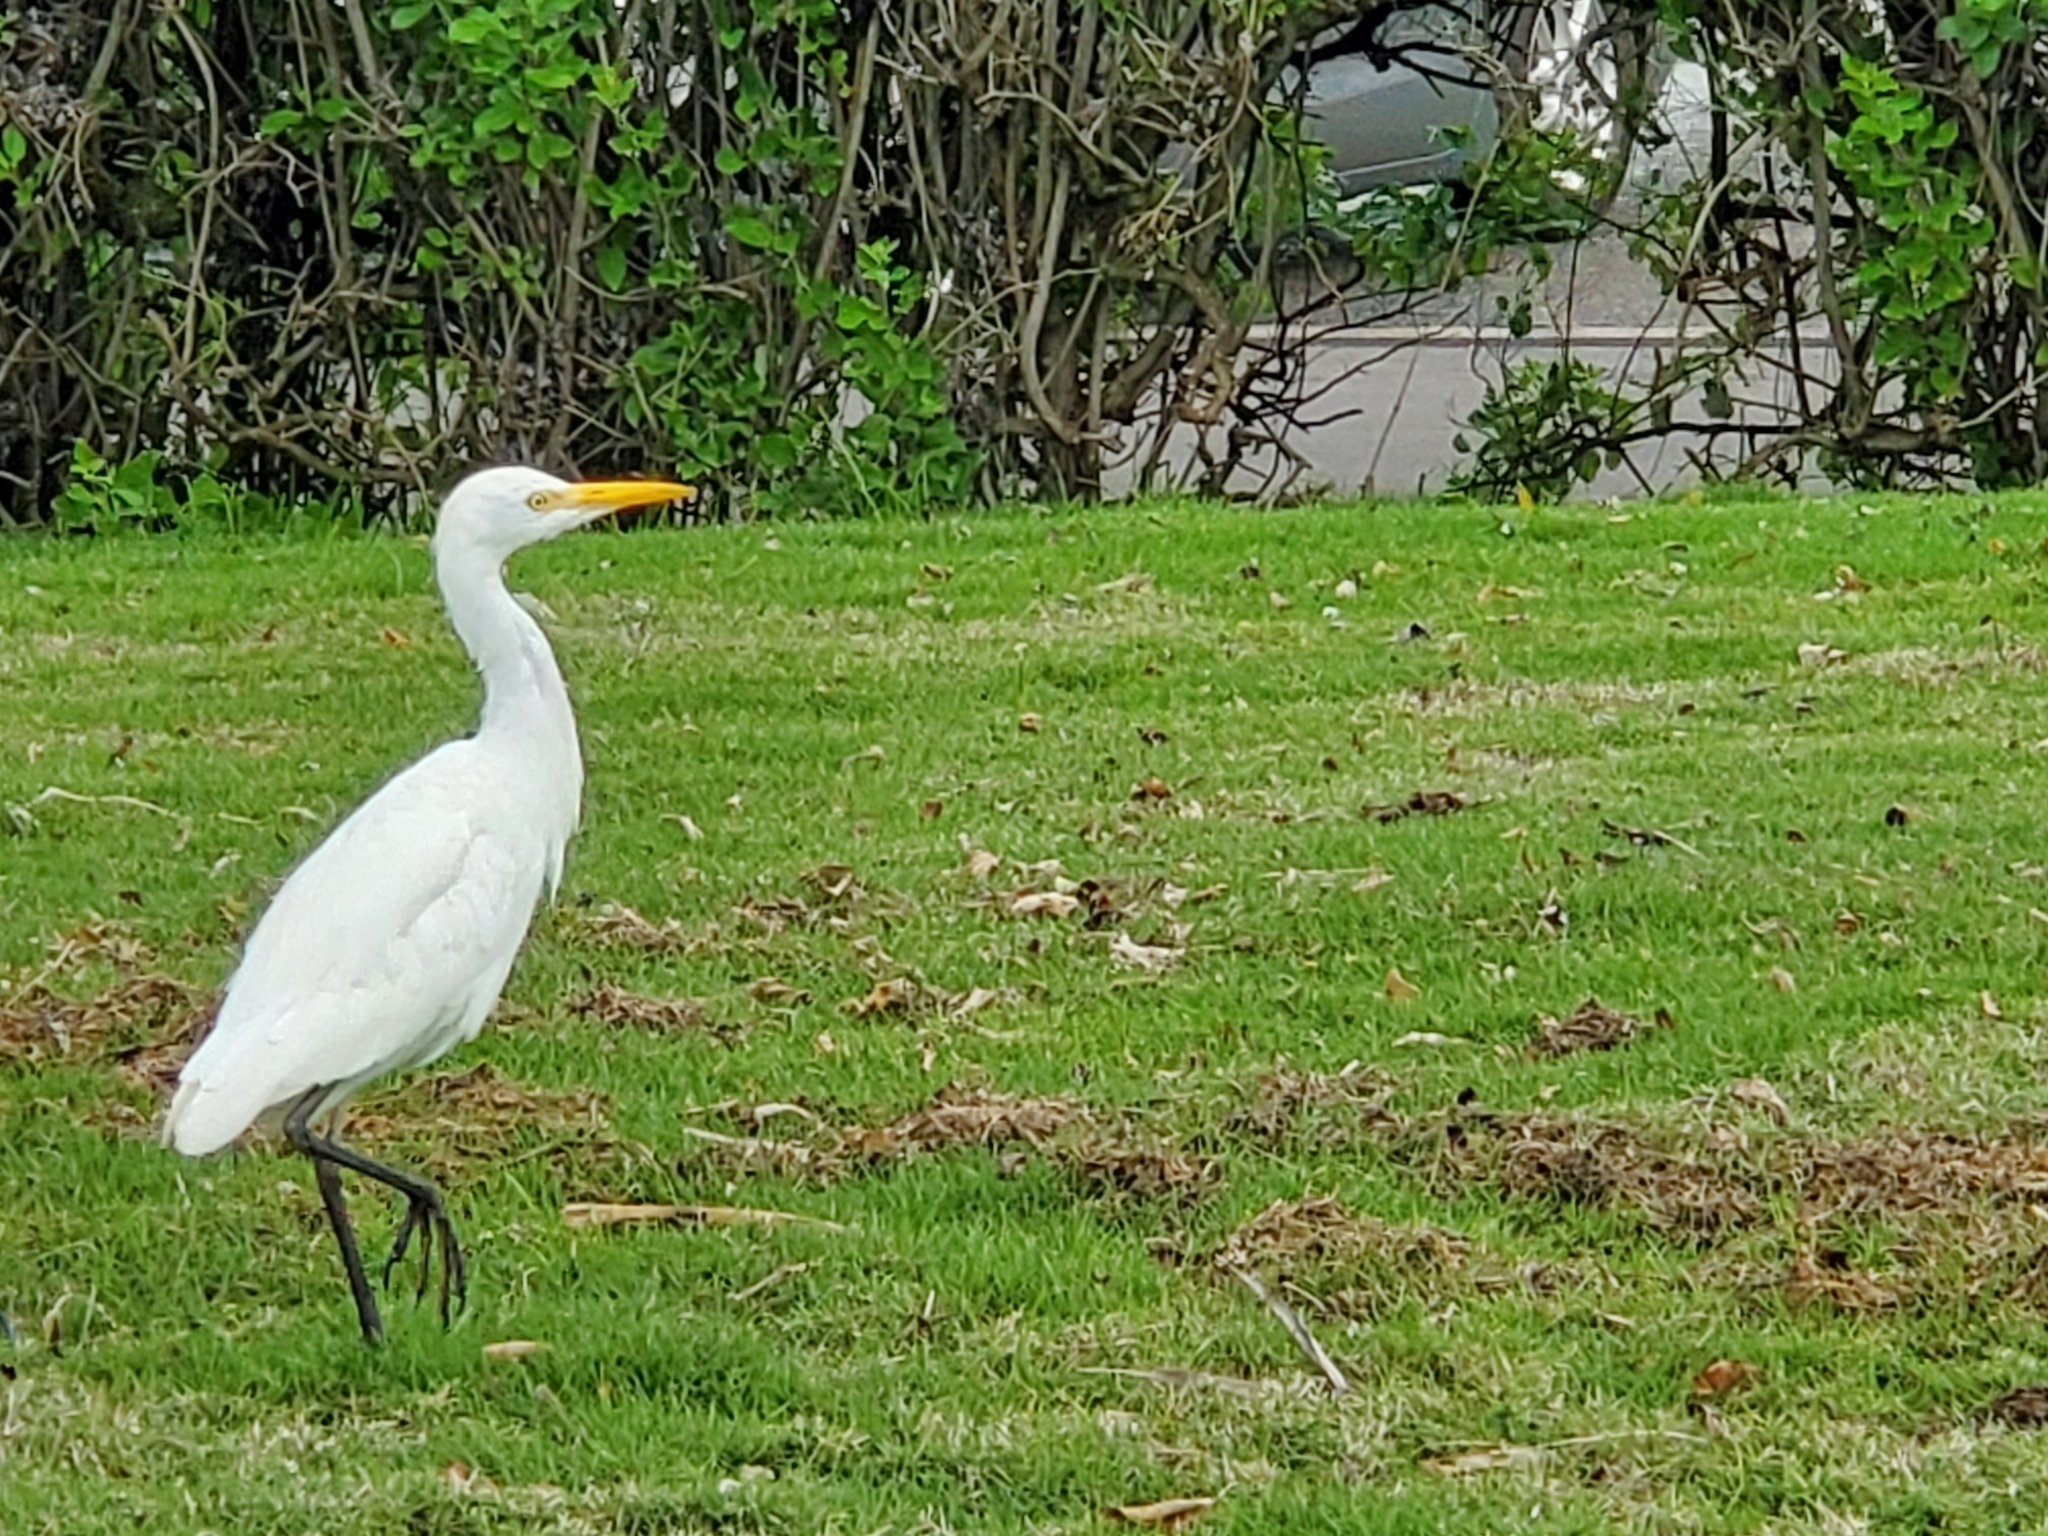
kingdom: Animalia
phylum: Chordata
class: Aves
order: Pelecaniformes
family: Ardeidae
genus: Bubulcus
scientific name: Bubulcus ibis
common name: Cattle egret
